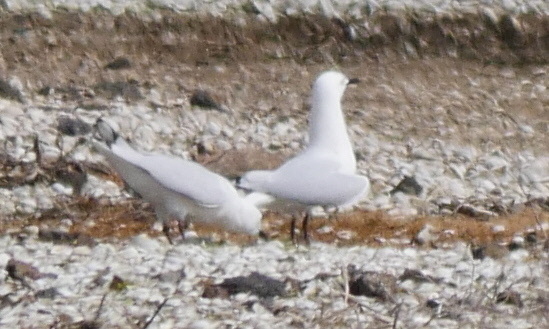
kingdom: Animalia
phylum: Chordata
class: Aves
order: Charadriiformes
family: Laridae
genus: Chroicocephalus
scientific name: Chroicocephalus bulleri
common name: Black-billed gull
